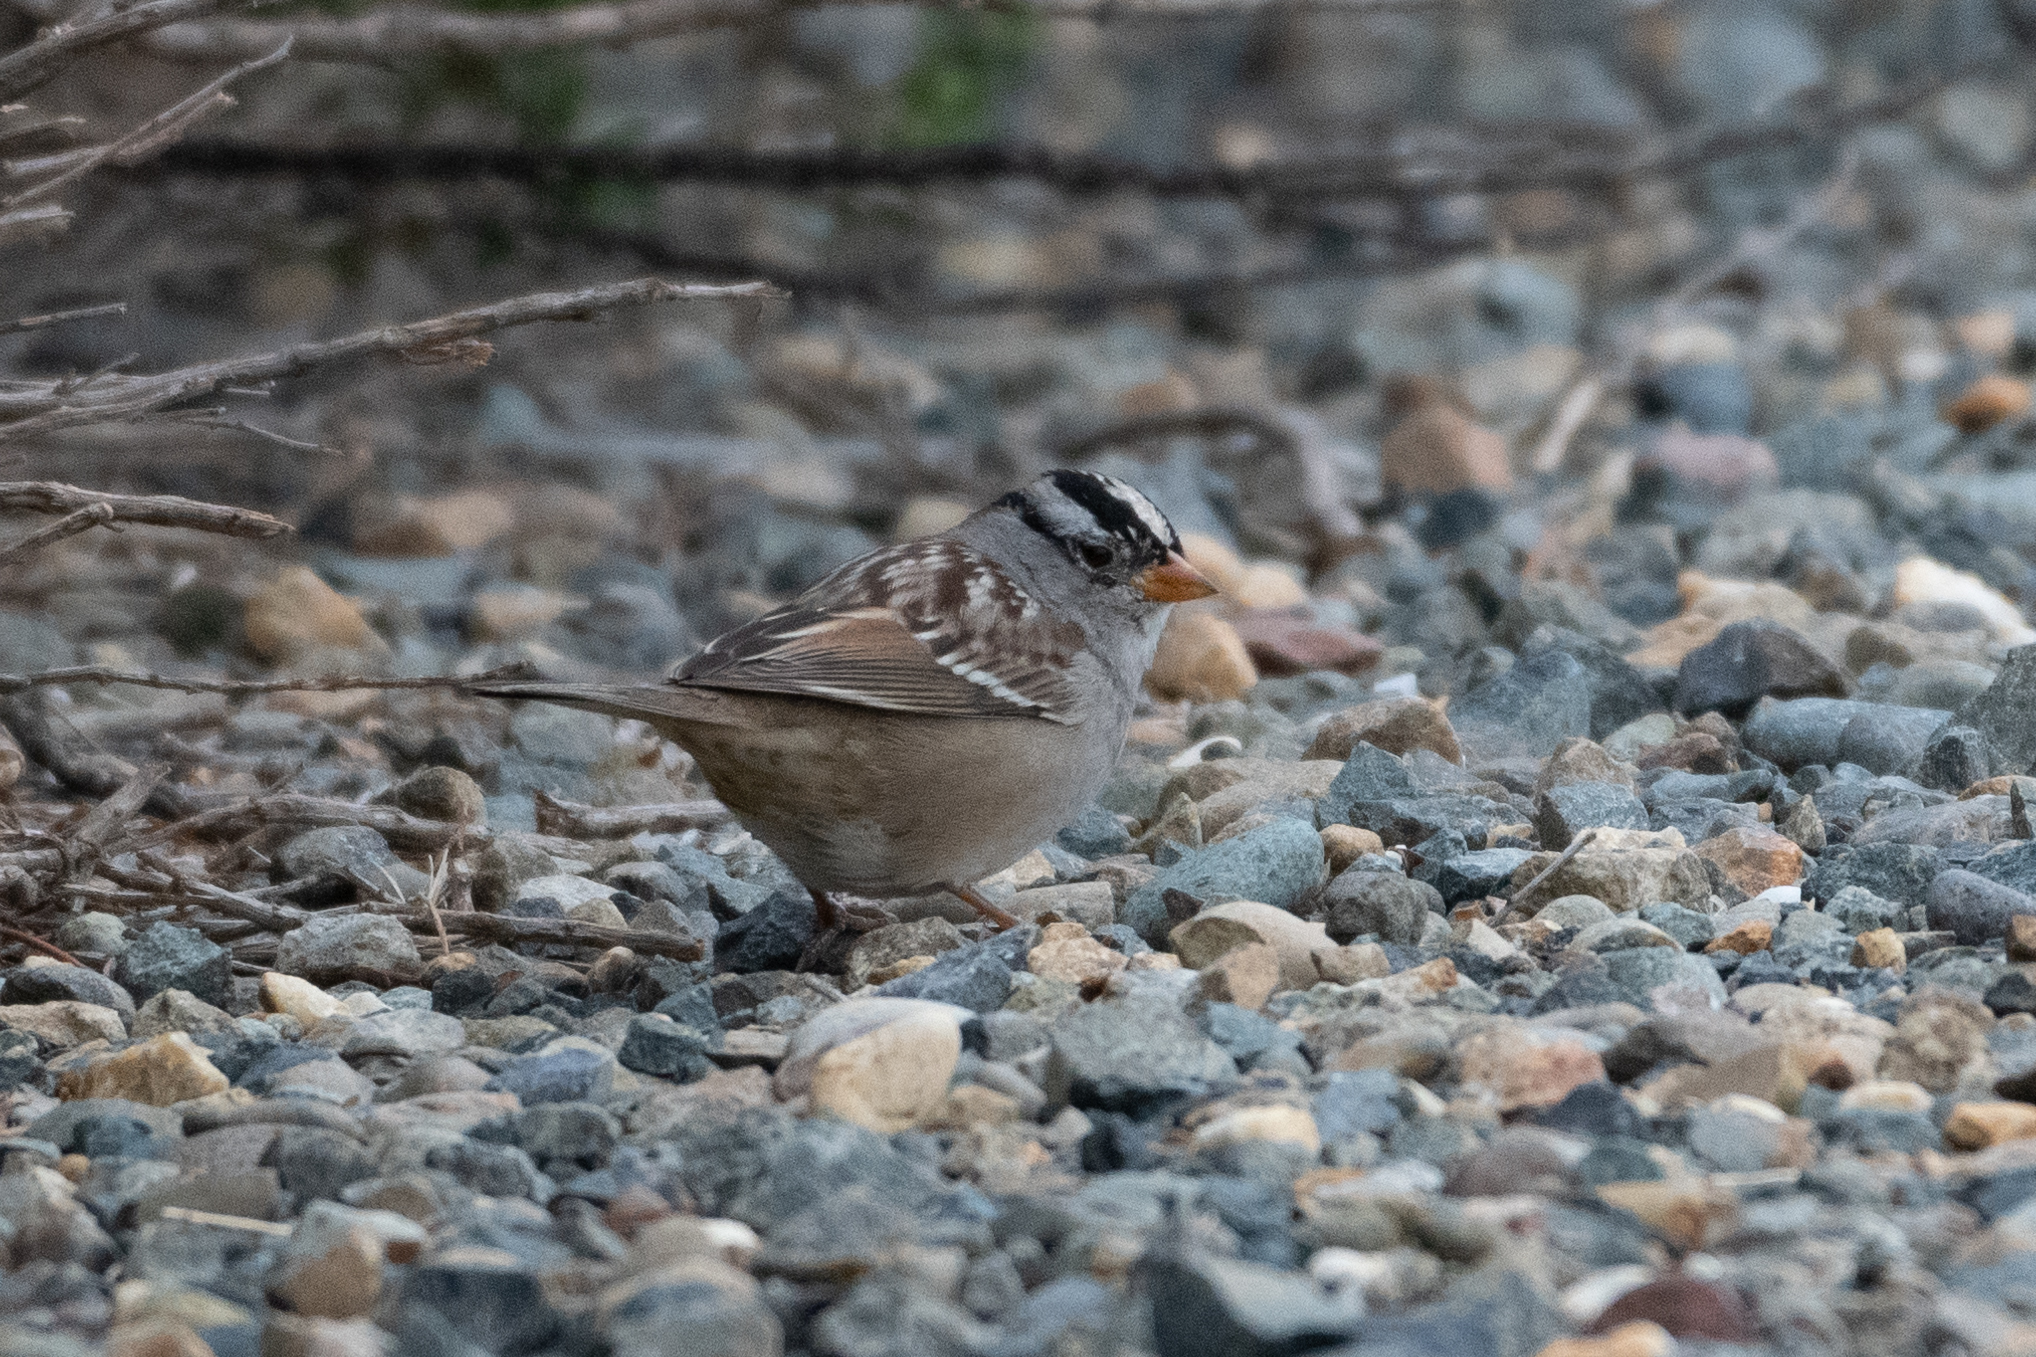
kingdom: Animalia
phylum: Chordata
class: Aves
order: Passeriformes
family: Passerellidae
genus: Zonotrichia
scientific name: Zonotrichia leucophrys
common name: White-crowned sparrow
